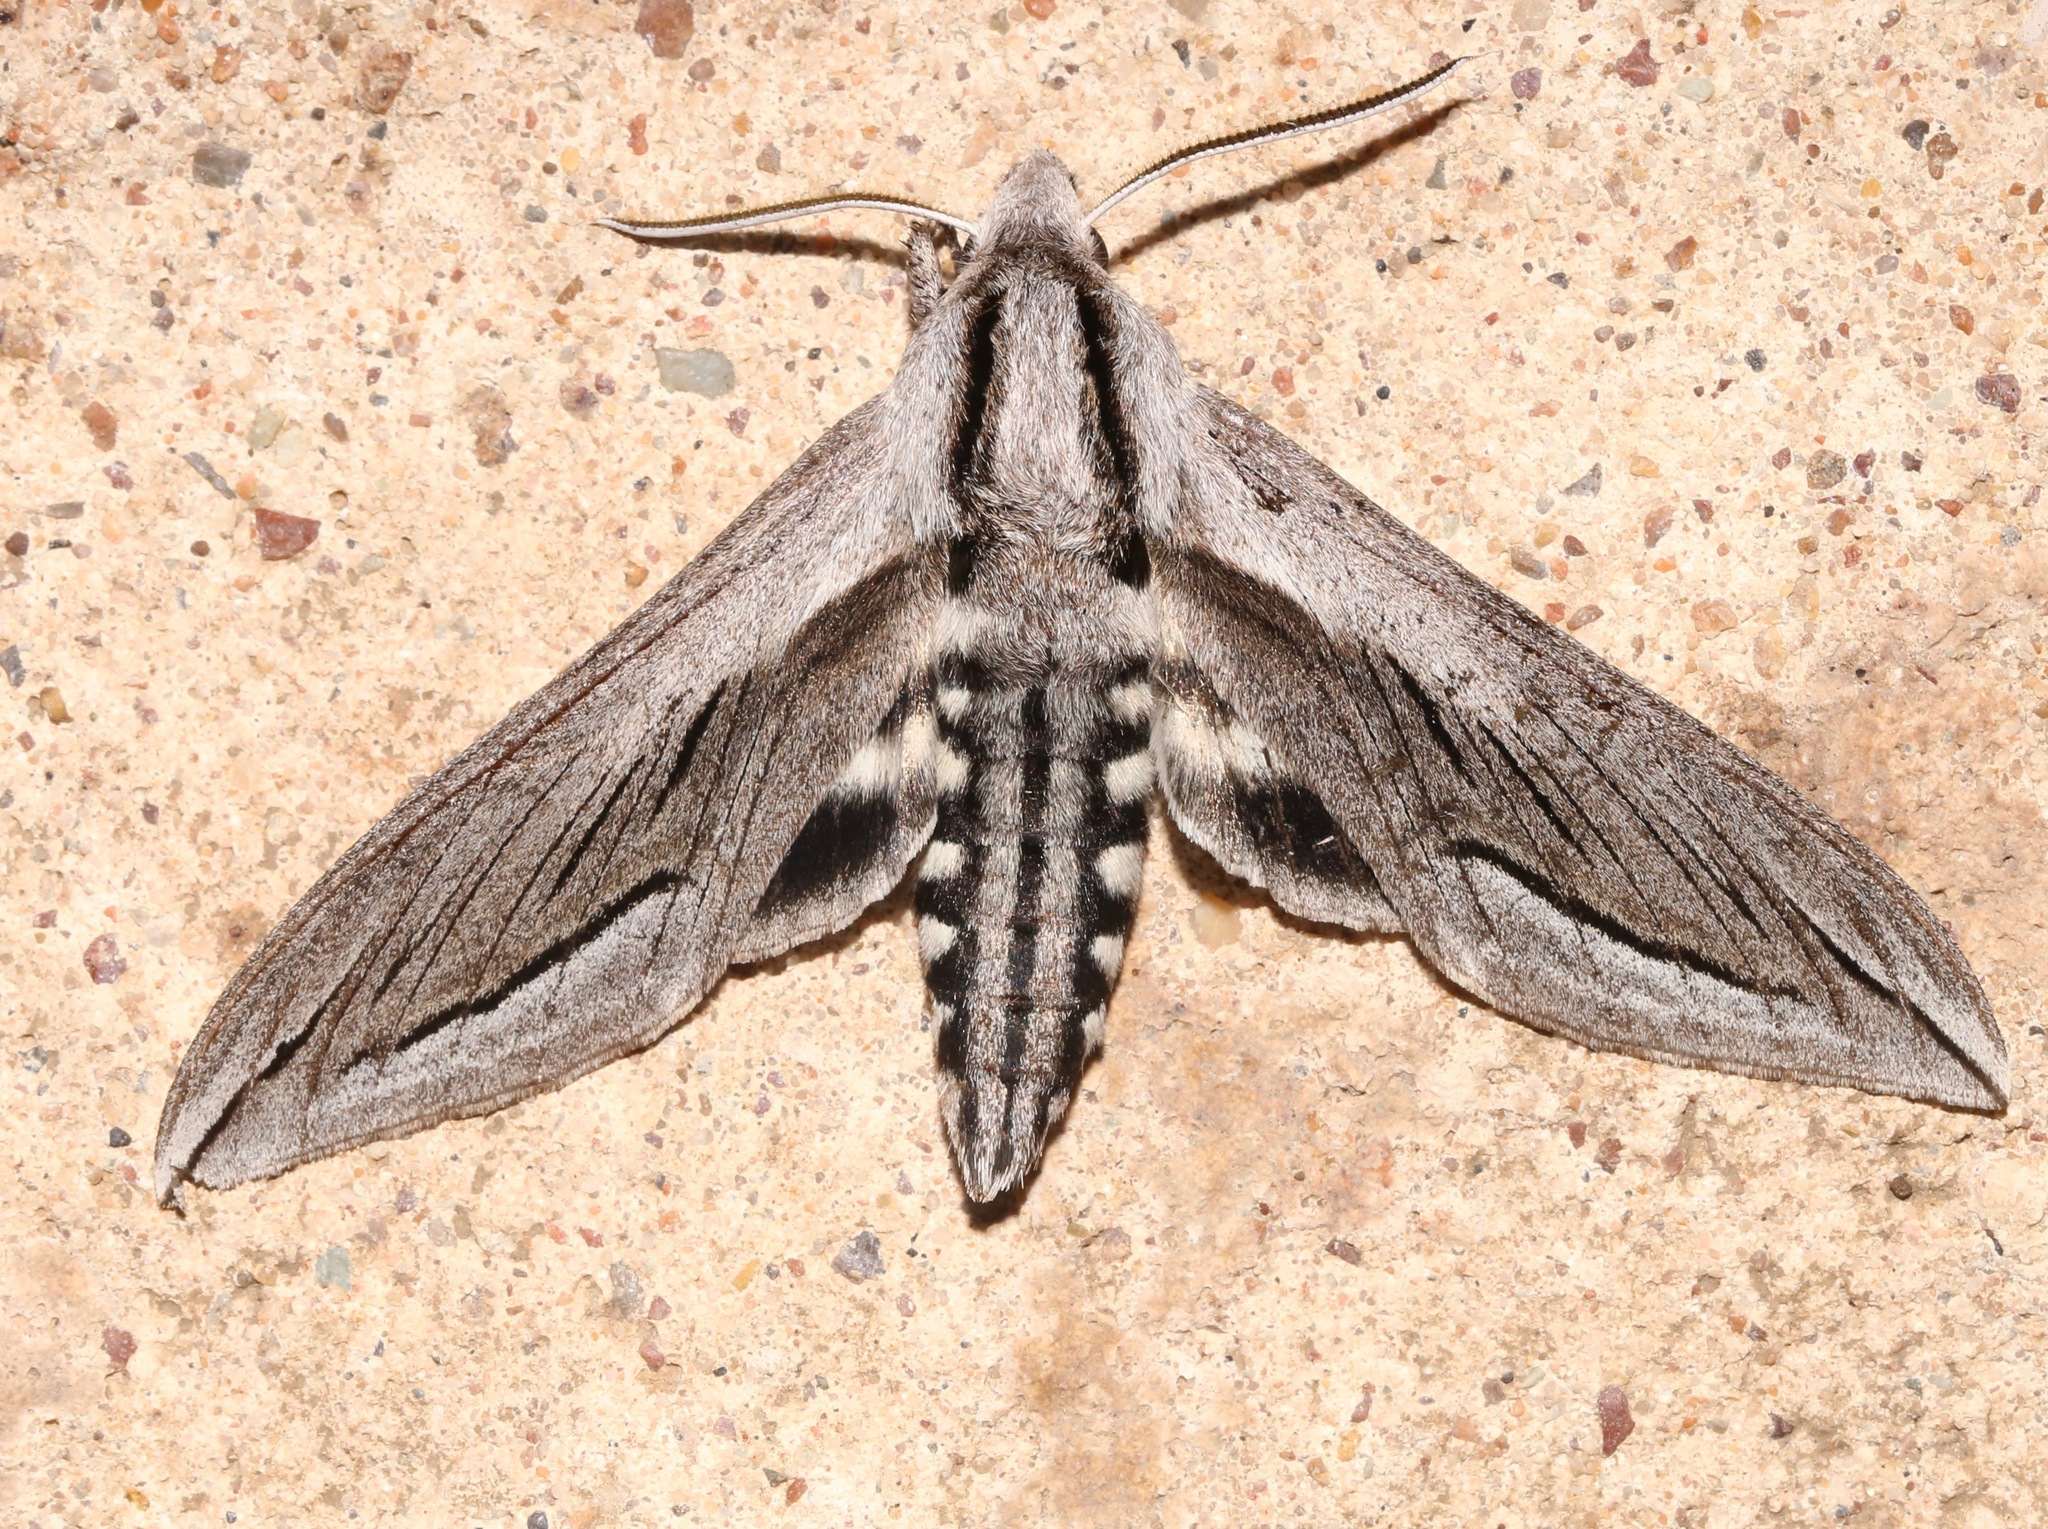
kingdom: Animalia
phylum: Arthropoda
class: Insecta
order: Lepidoptera
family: Sphingidae
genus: Sphinx
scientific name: Sphinx vashti
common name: Snowberry sphinx
